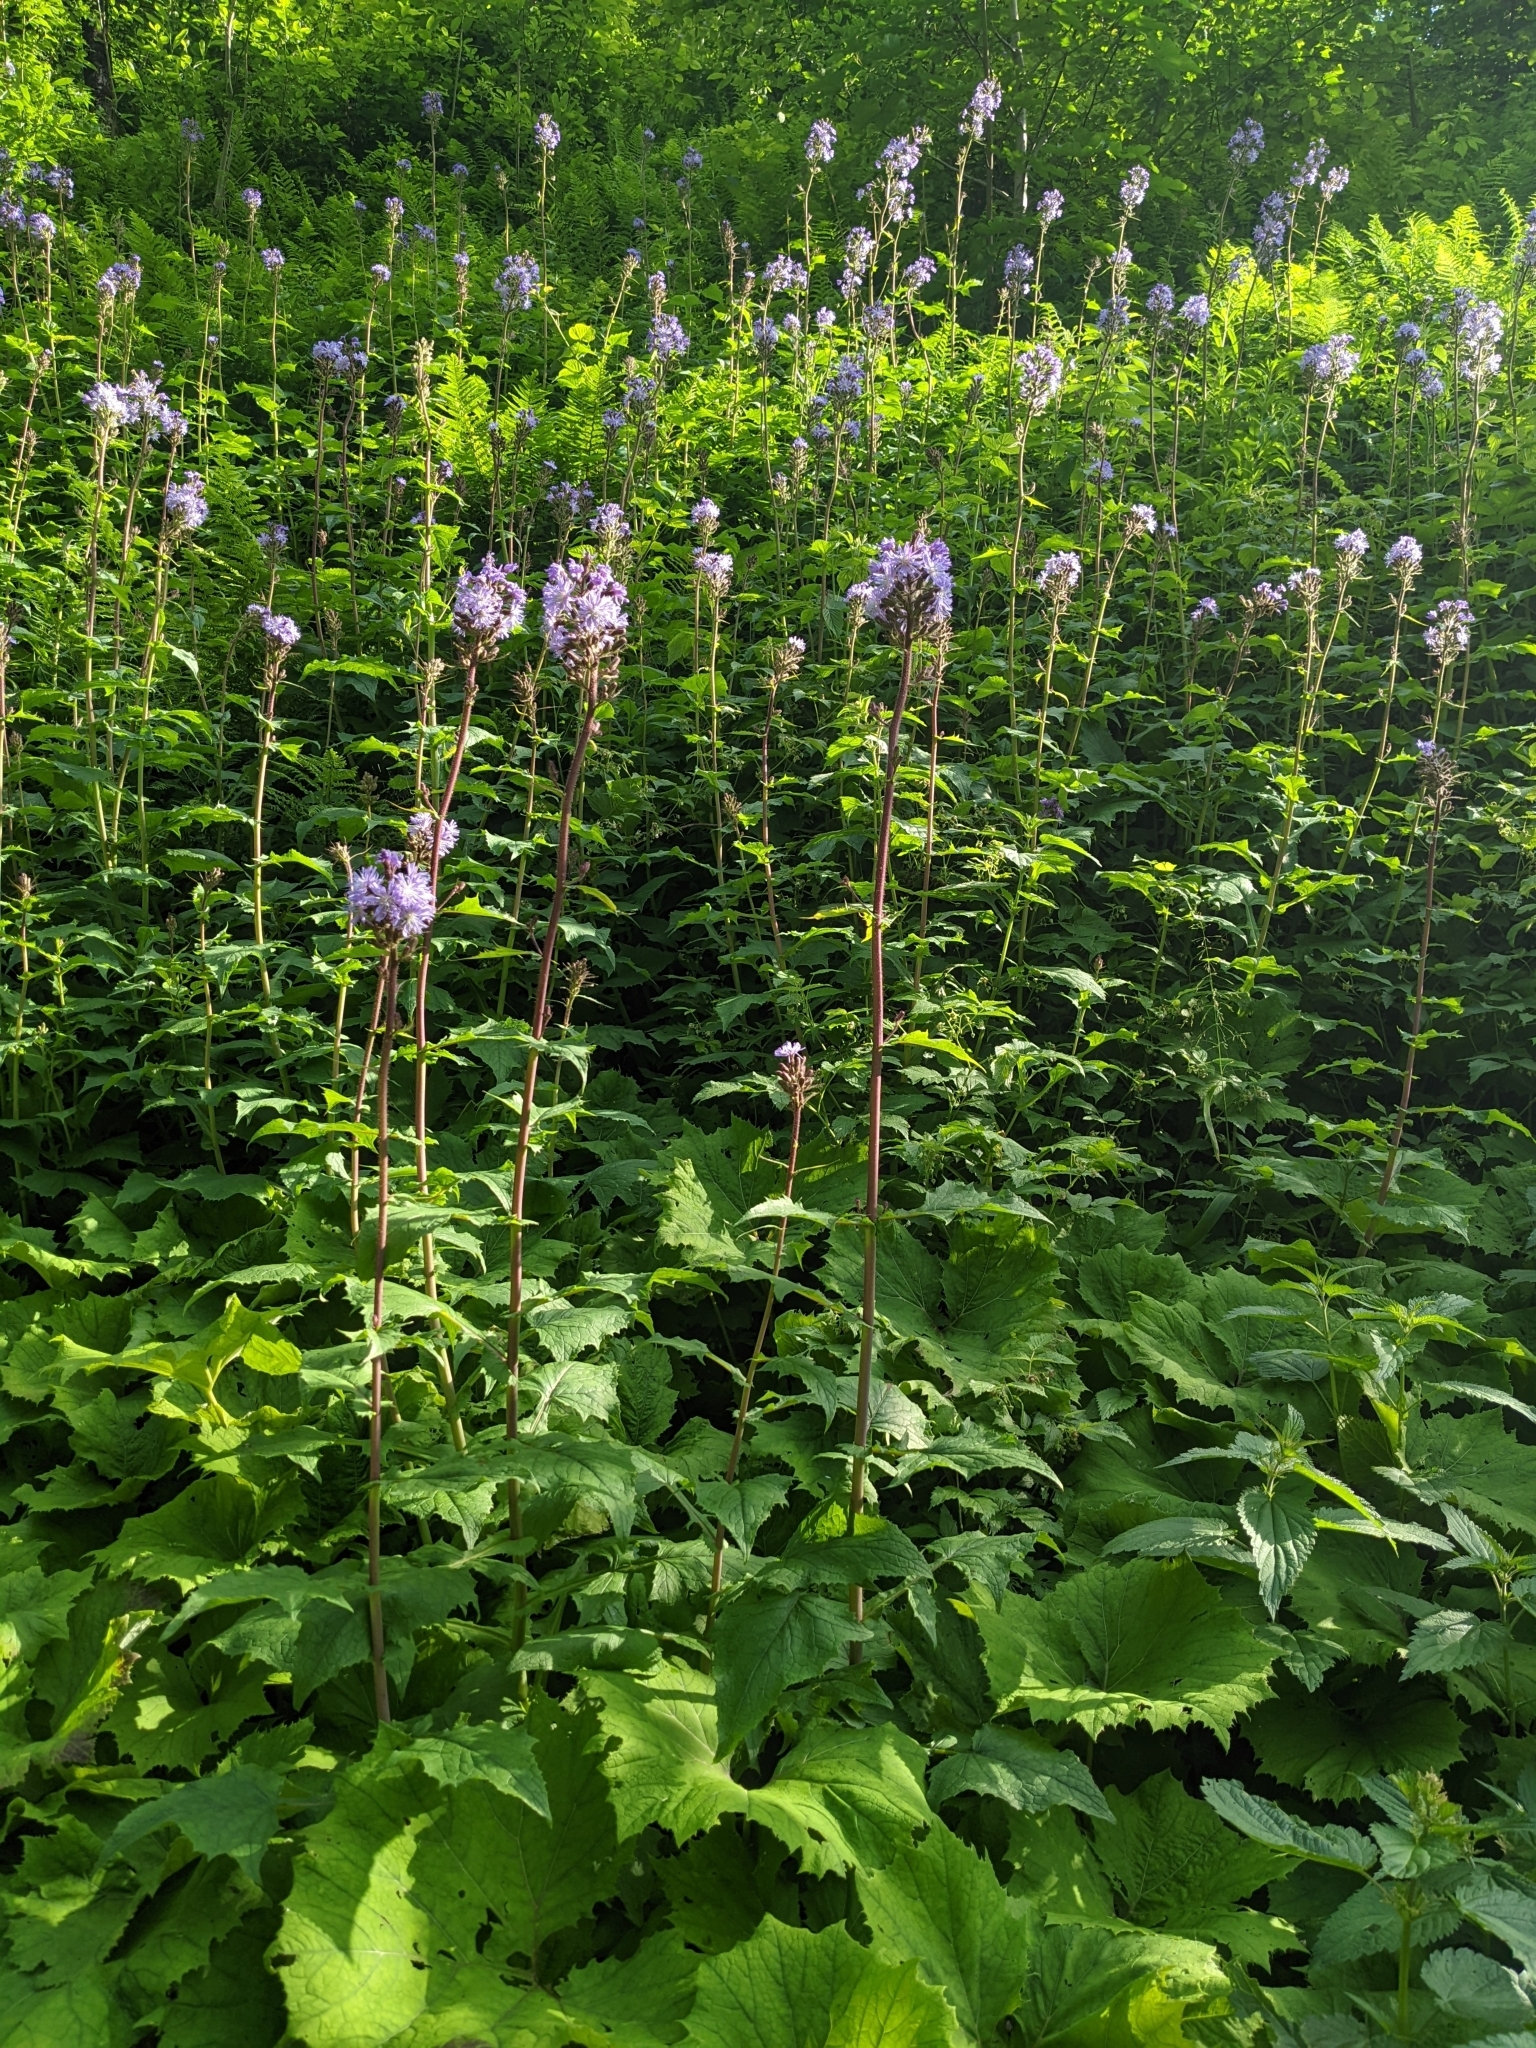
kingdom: Plantae
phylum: Tracheophyta
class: Magnoliopsida
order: Asterales
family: Asteraceae
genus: Cicerbita
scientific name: Cicerbita alpina
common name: Alpine blue-sow-thistle
